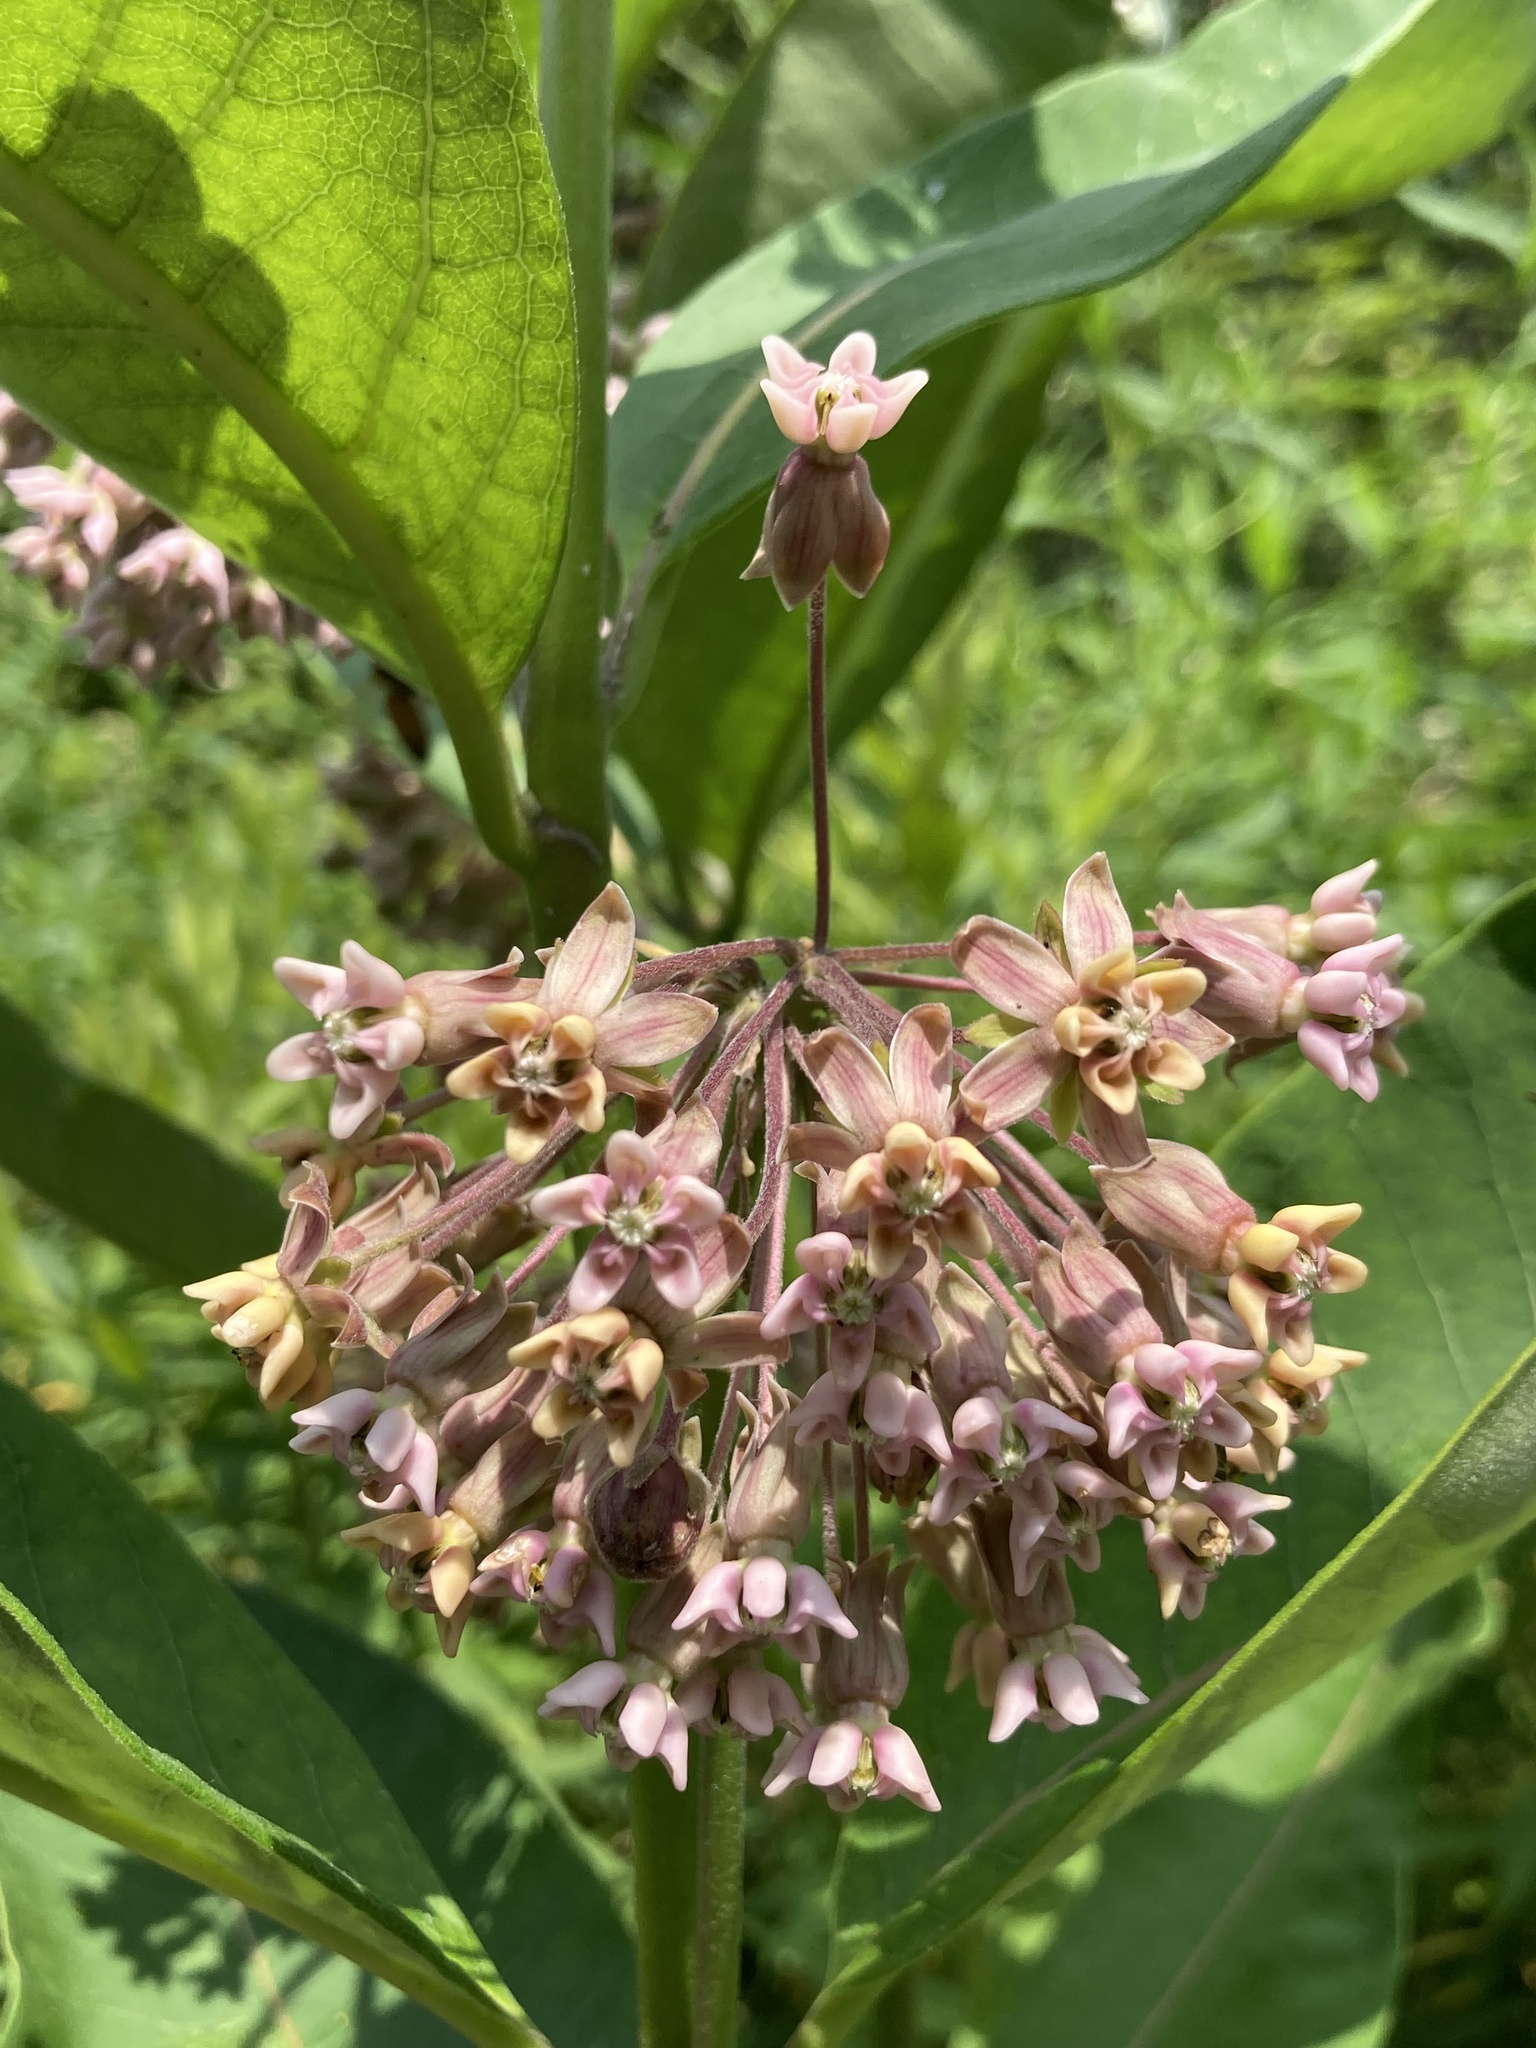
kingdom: Plantae
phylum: Tracheophyta
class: Magnoliopsida
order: Gentianales
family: Apocynaceae
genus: Asclepias
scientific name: Asclepias syriaca
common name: Common milkweed
